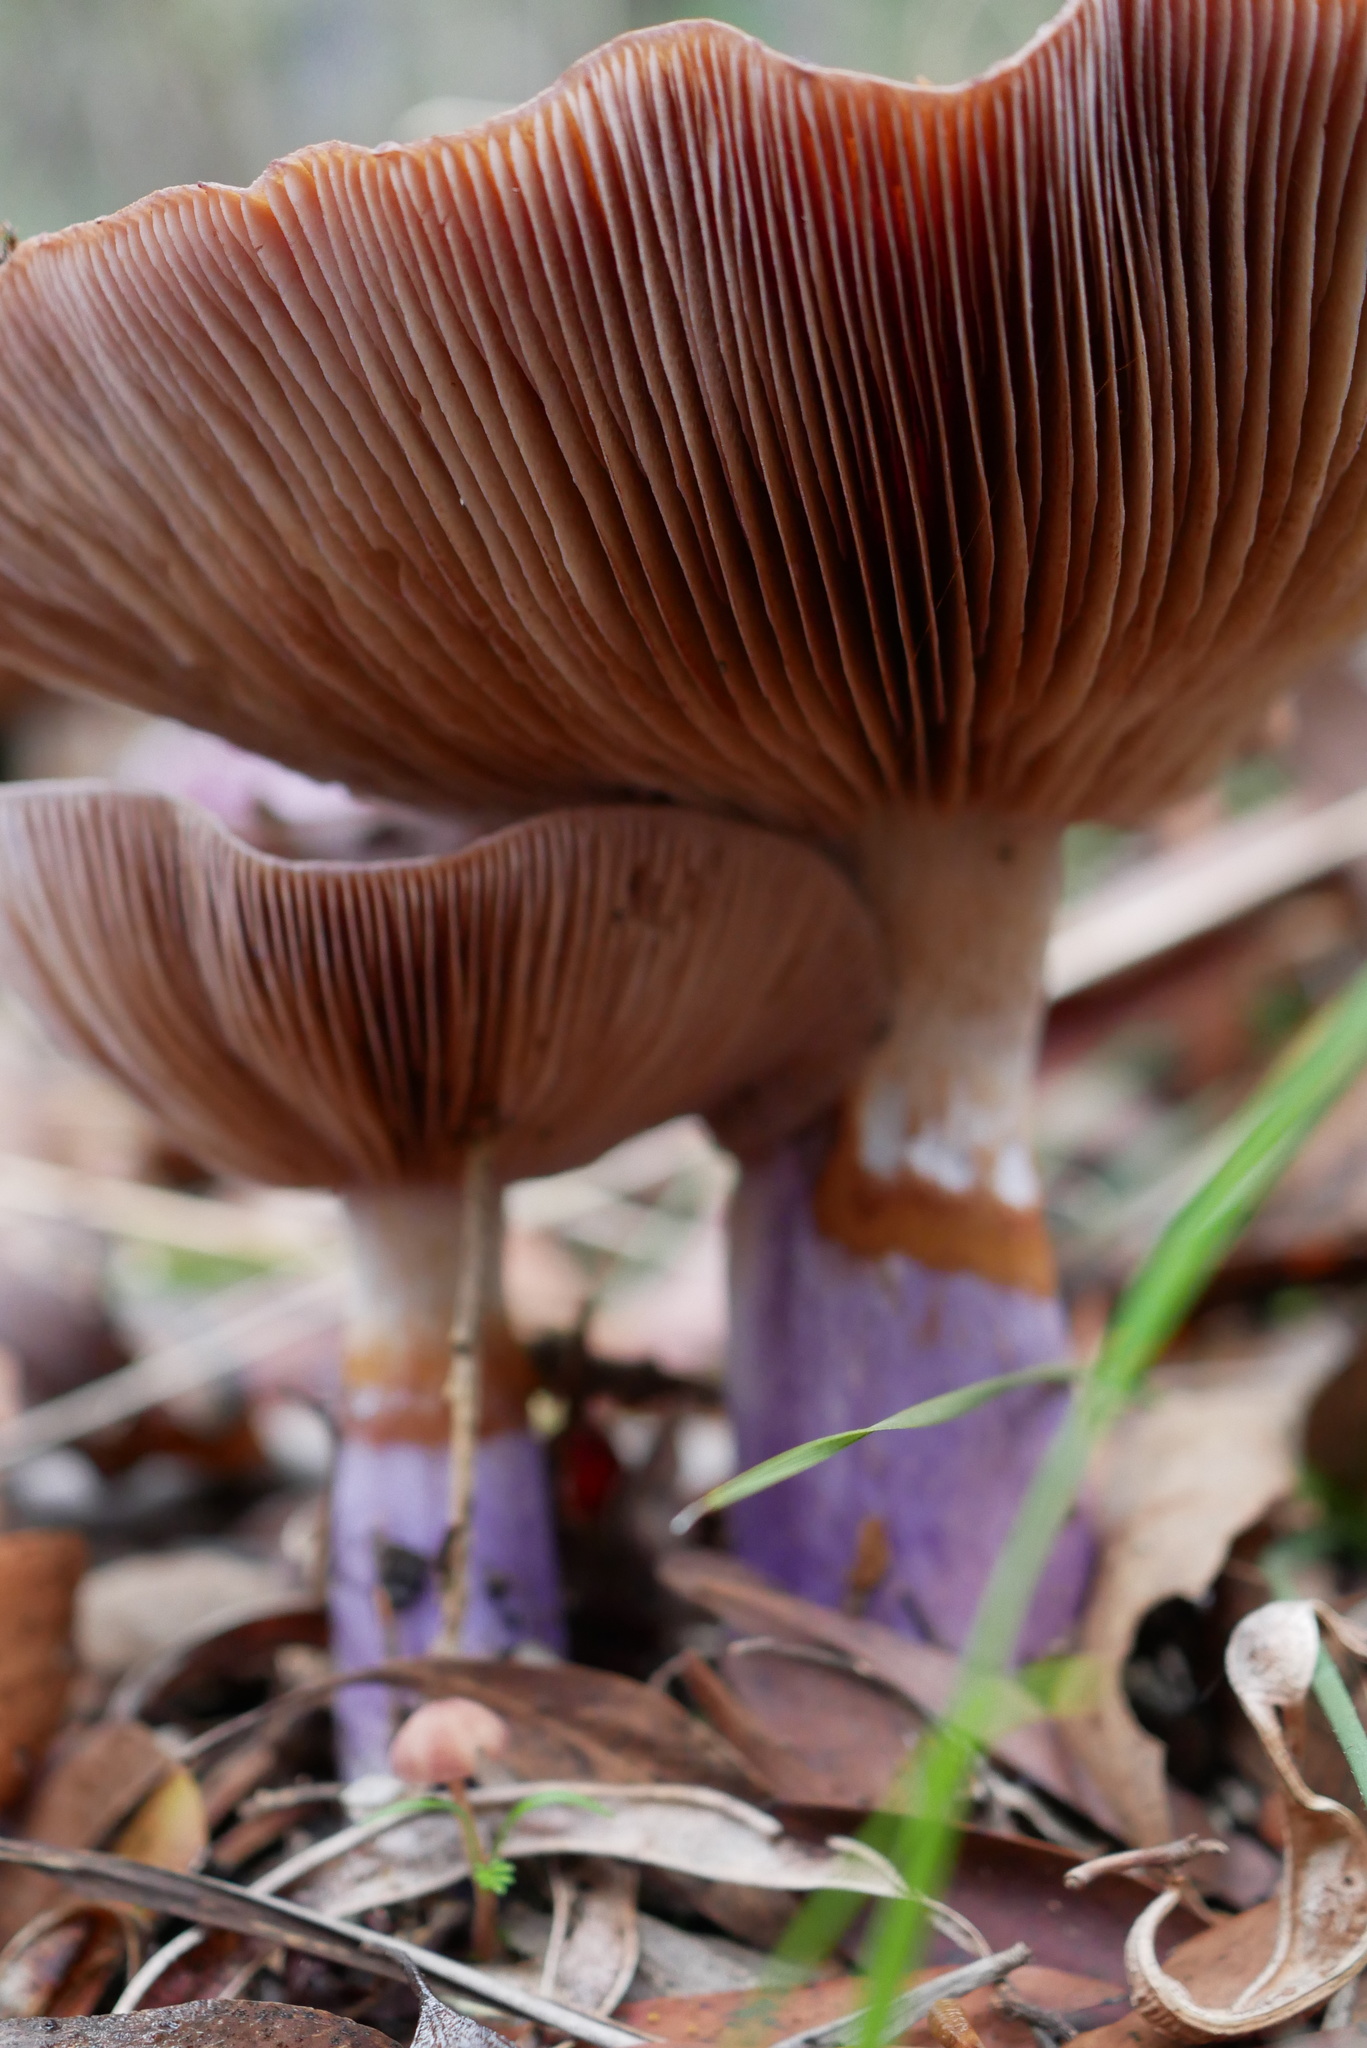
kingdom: Fungi
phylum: Basidiomycota
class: Agaricomycetes
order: Agaricales
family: Cortinariaceae
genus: Cortinarius
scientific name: Cortinarius archeri
